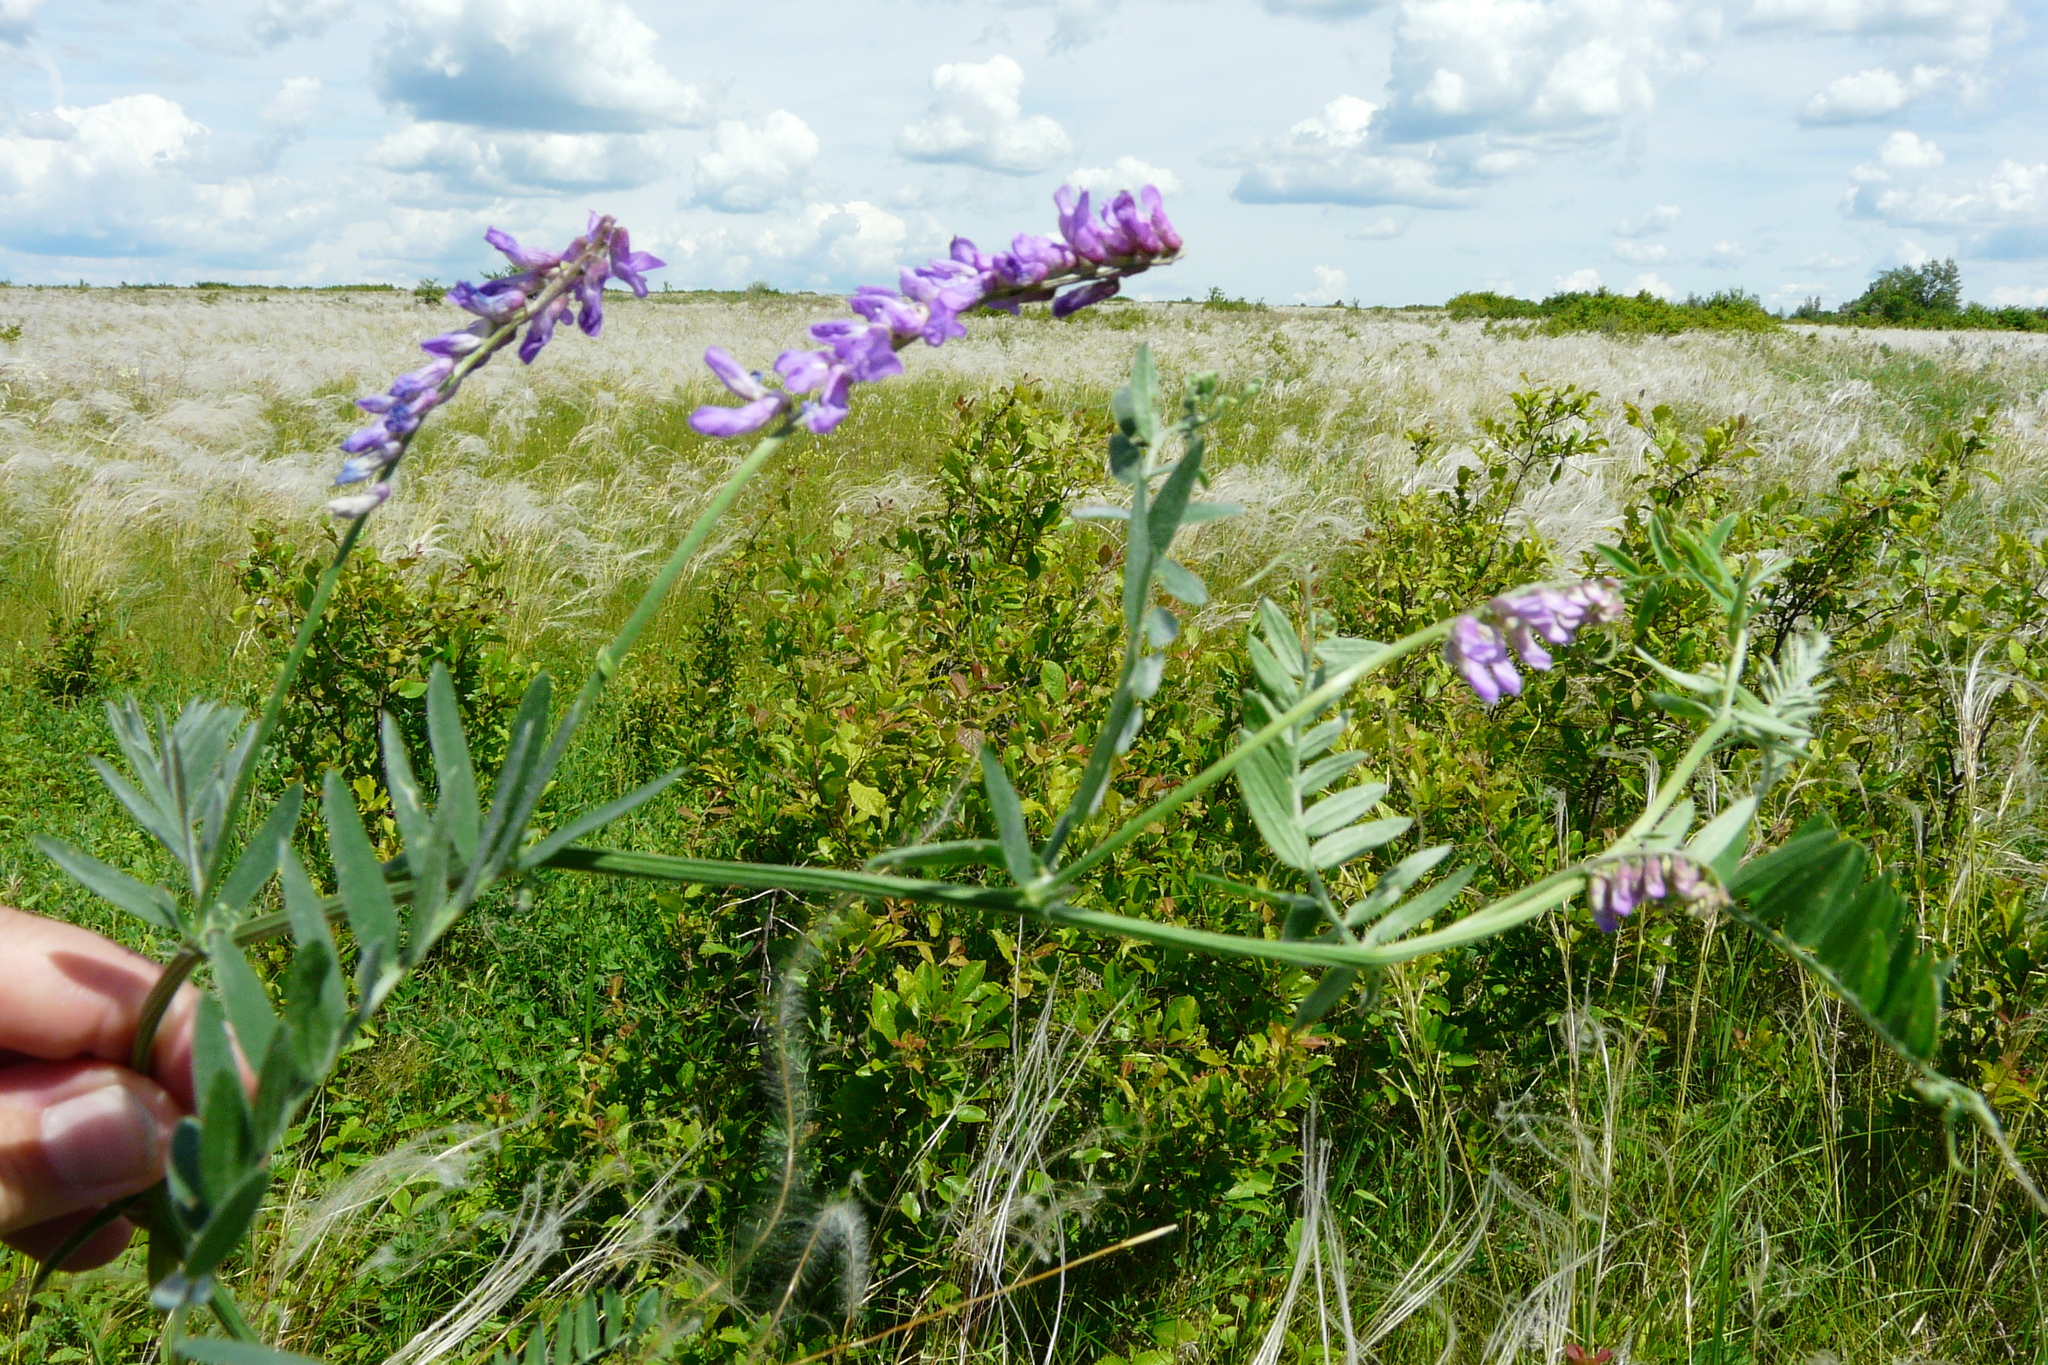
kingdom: Plantae
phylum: Tracheophyta
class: Magnoliopsida
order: Fabales
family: Fabaceae
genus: Vicia
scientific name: Vicia cracca
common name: Bird vetch
